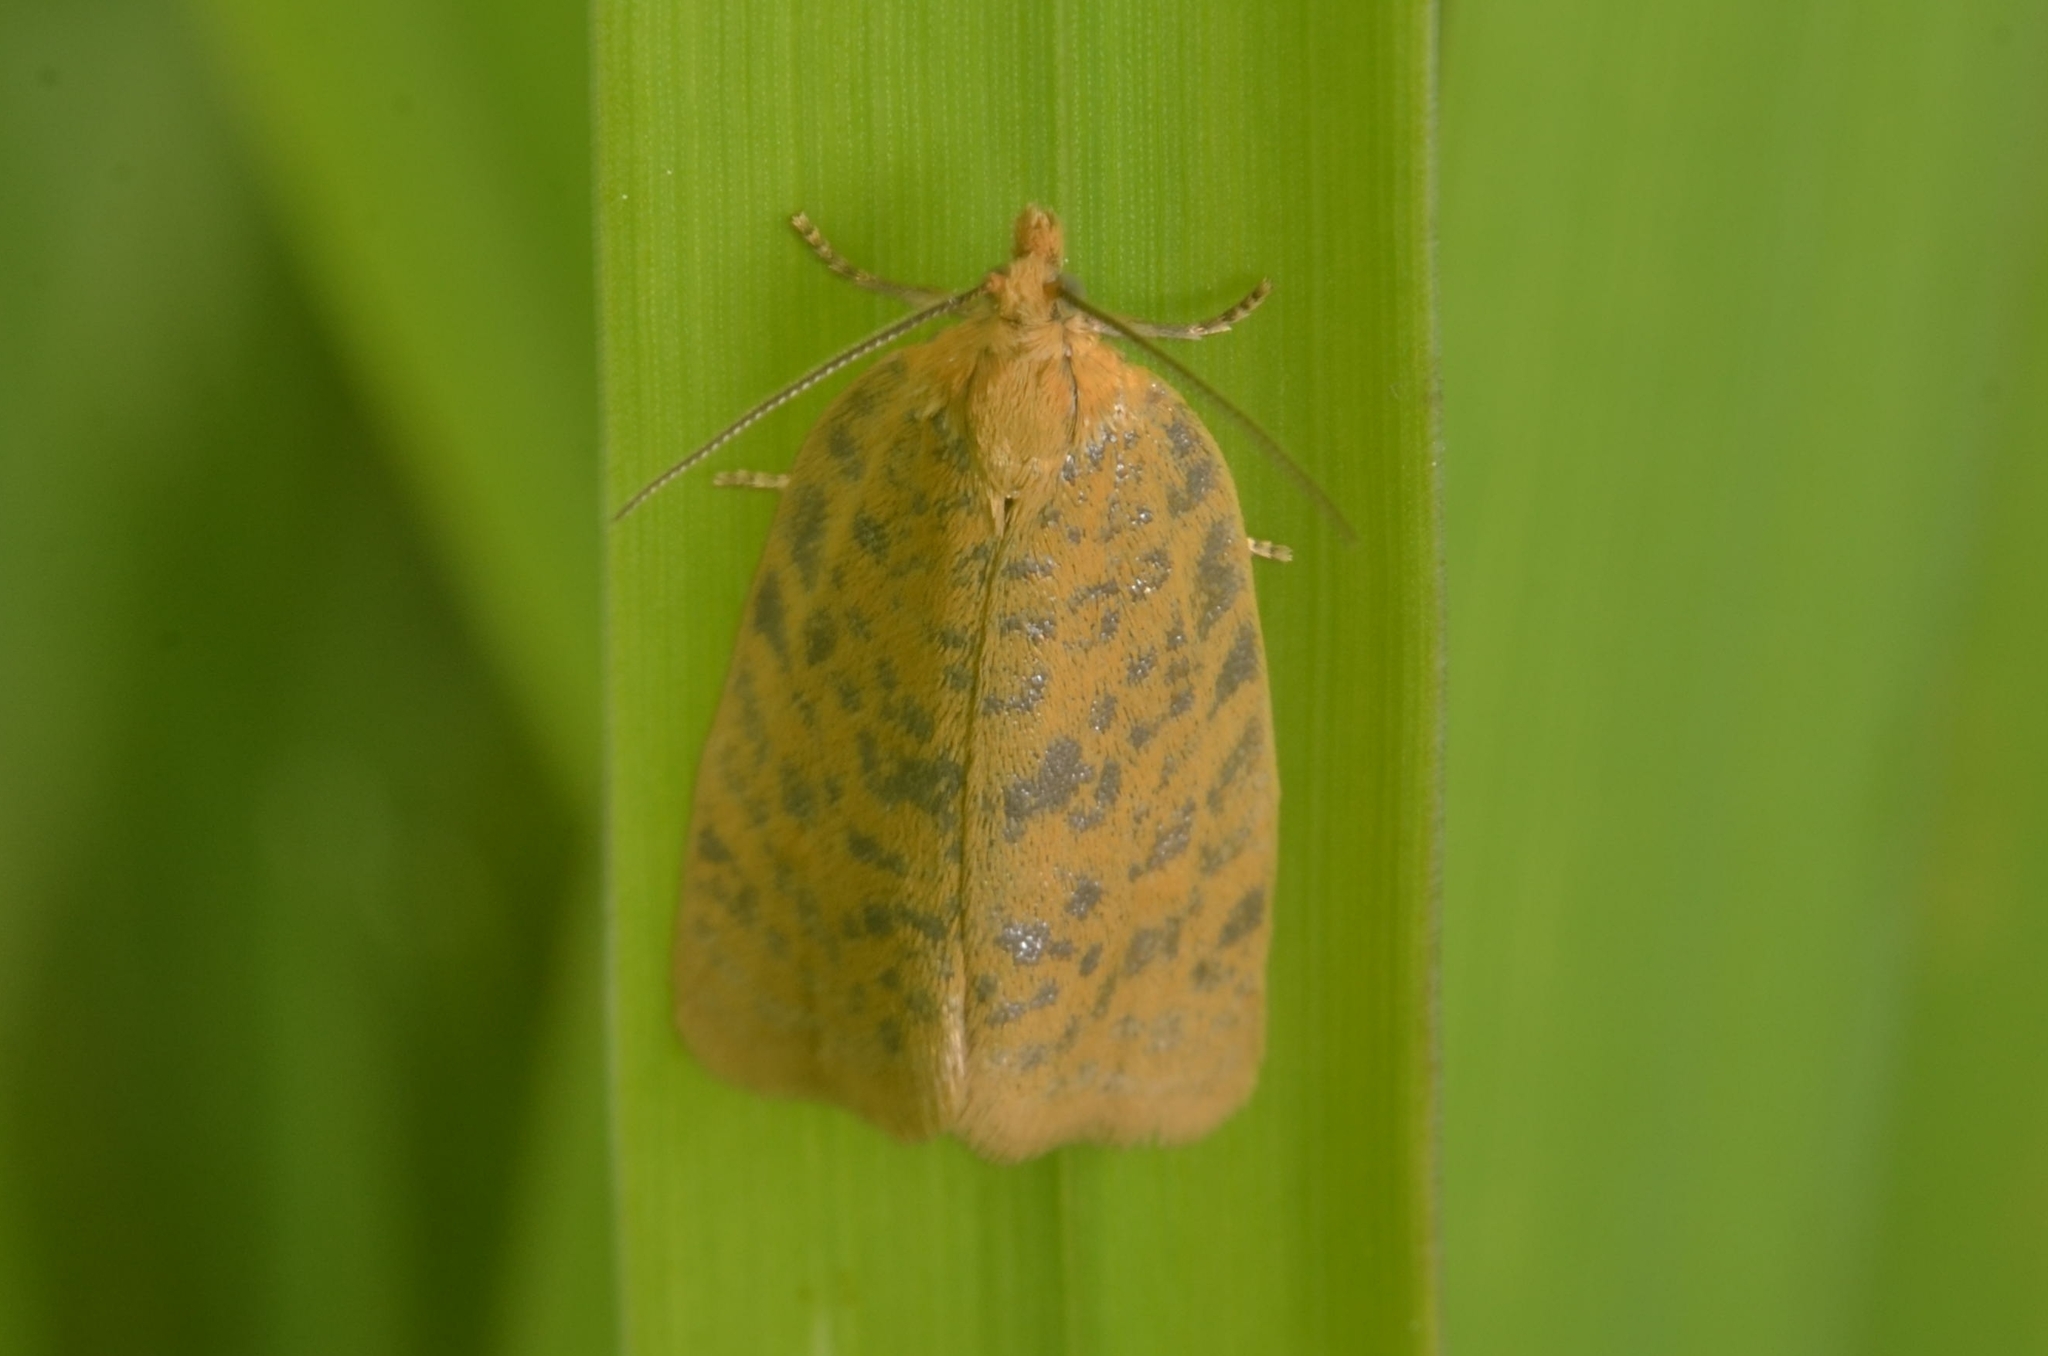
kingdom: Animalia
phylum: Arthropoda
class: Insecta
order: Lepidoptera
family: Tortricidae
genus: Clepsis
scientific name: Clepsis rogana
